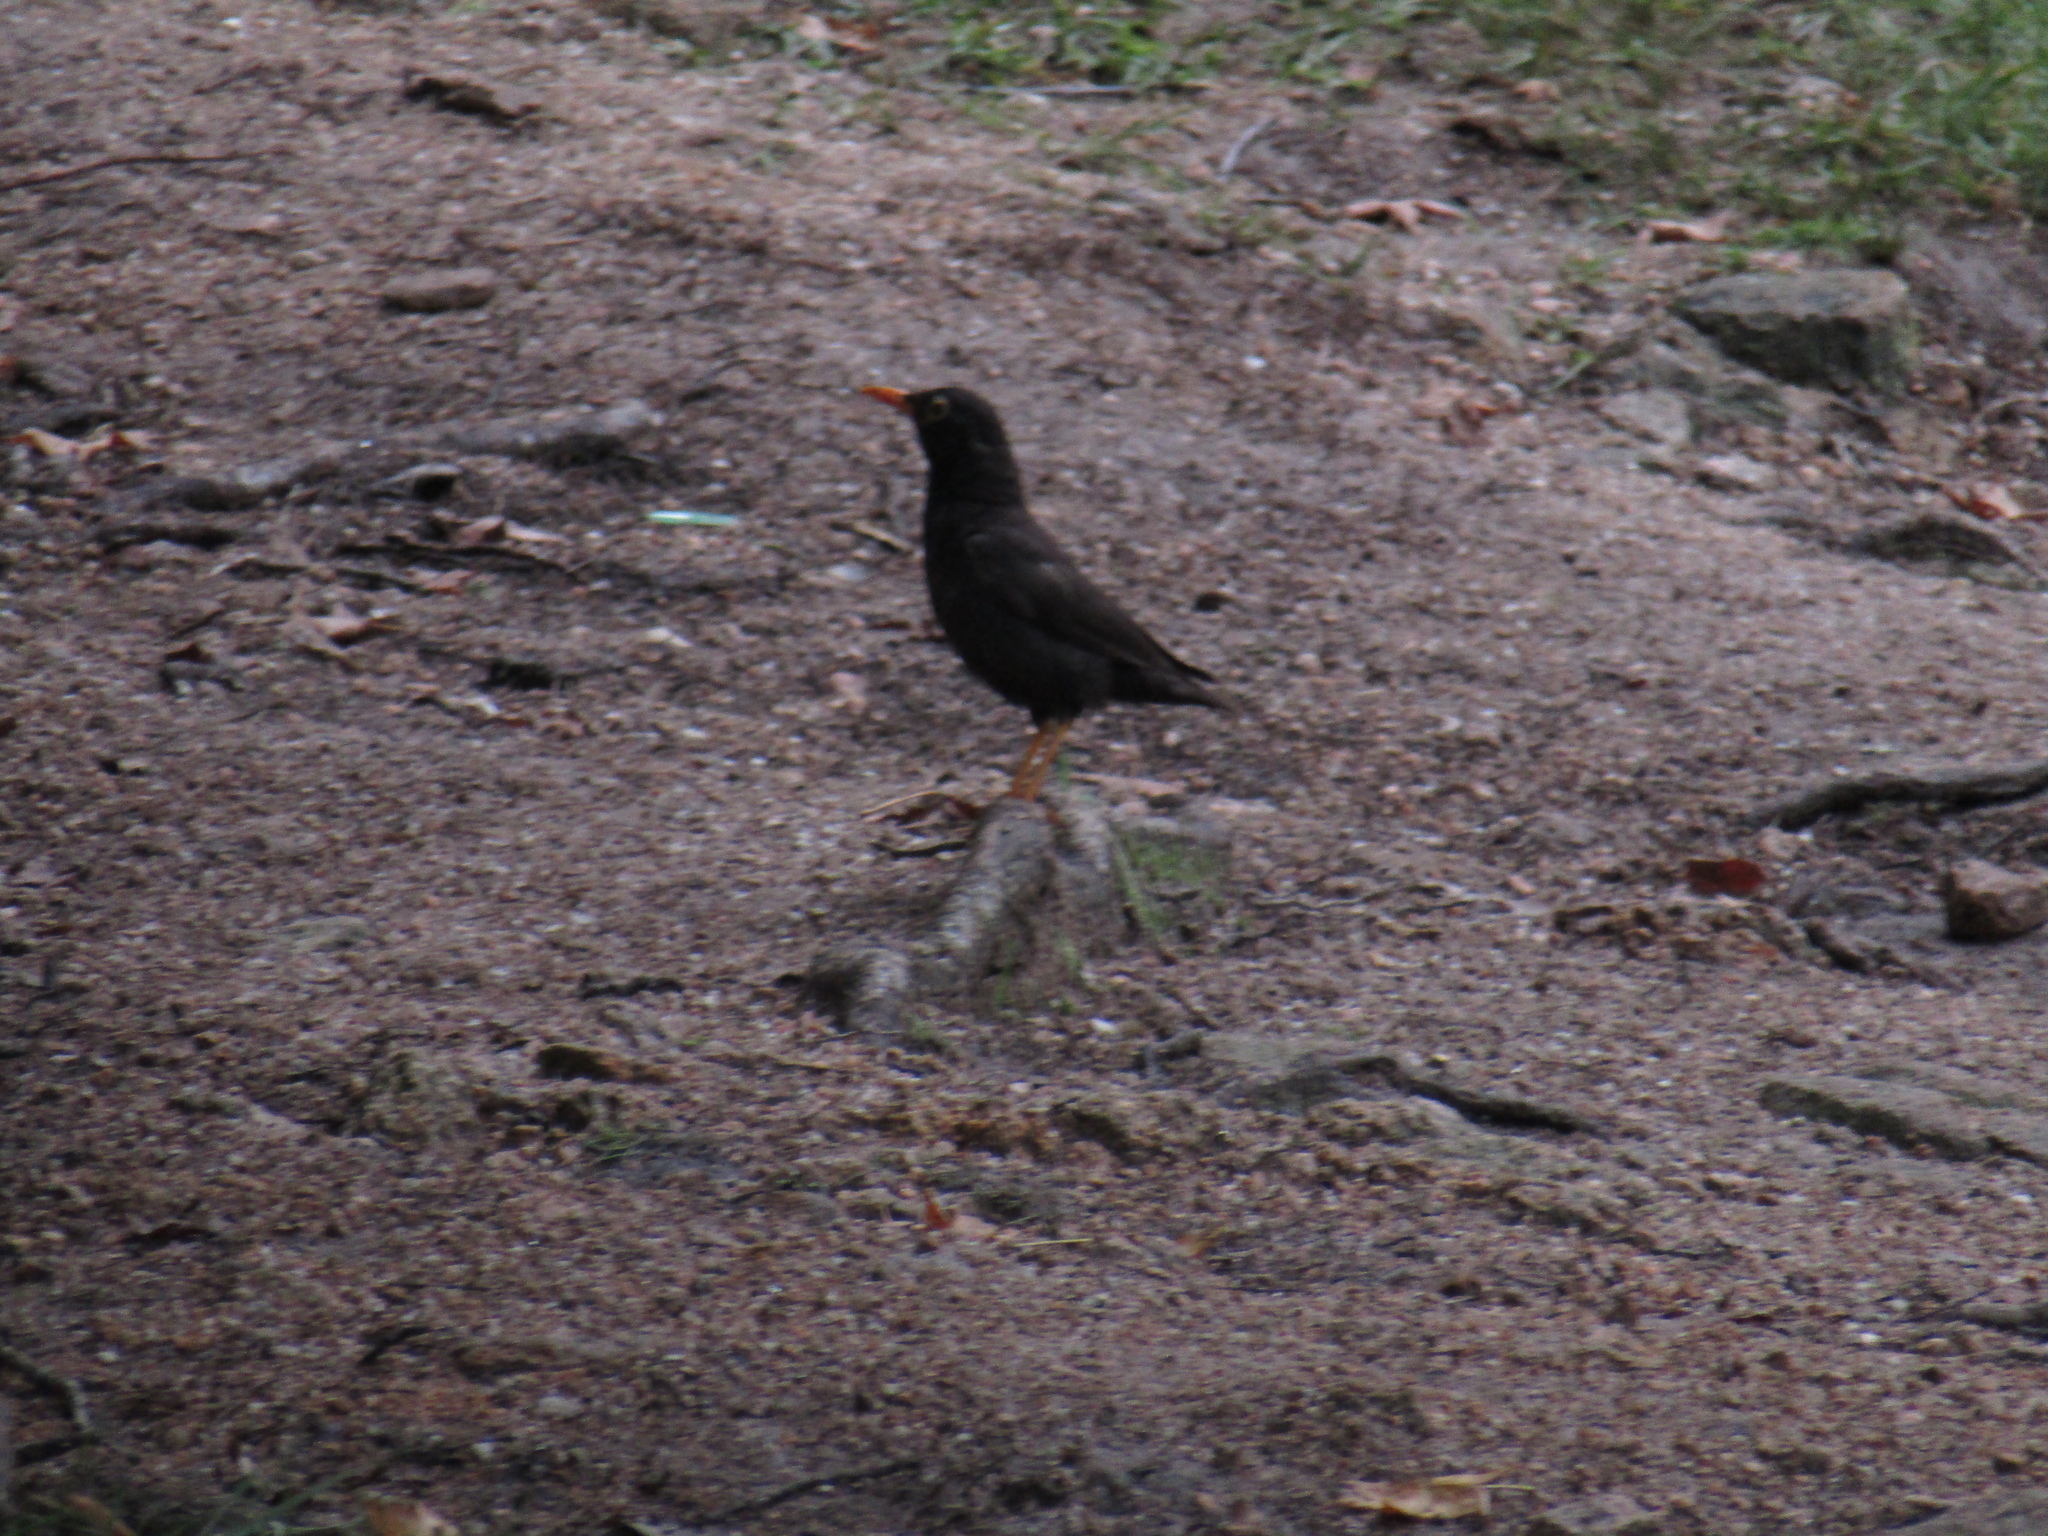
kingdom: Animalia
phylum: Chordata
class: Aves
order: Passeriformes
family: Turdidae
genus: Turdus
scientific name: Turdus chiguanco
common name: Chiguanco thrush
